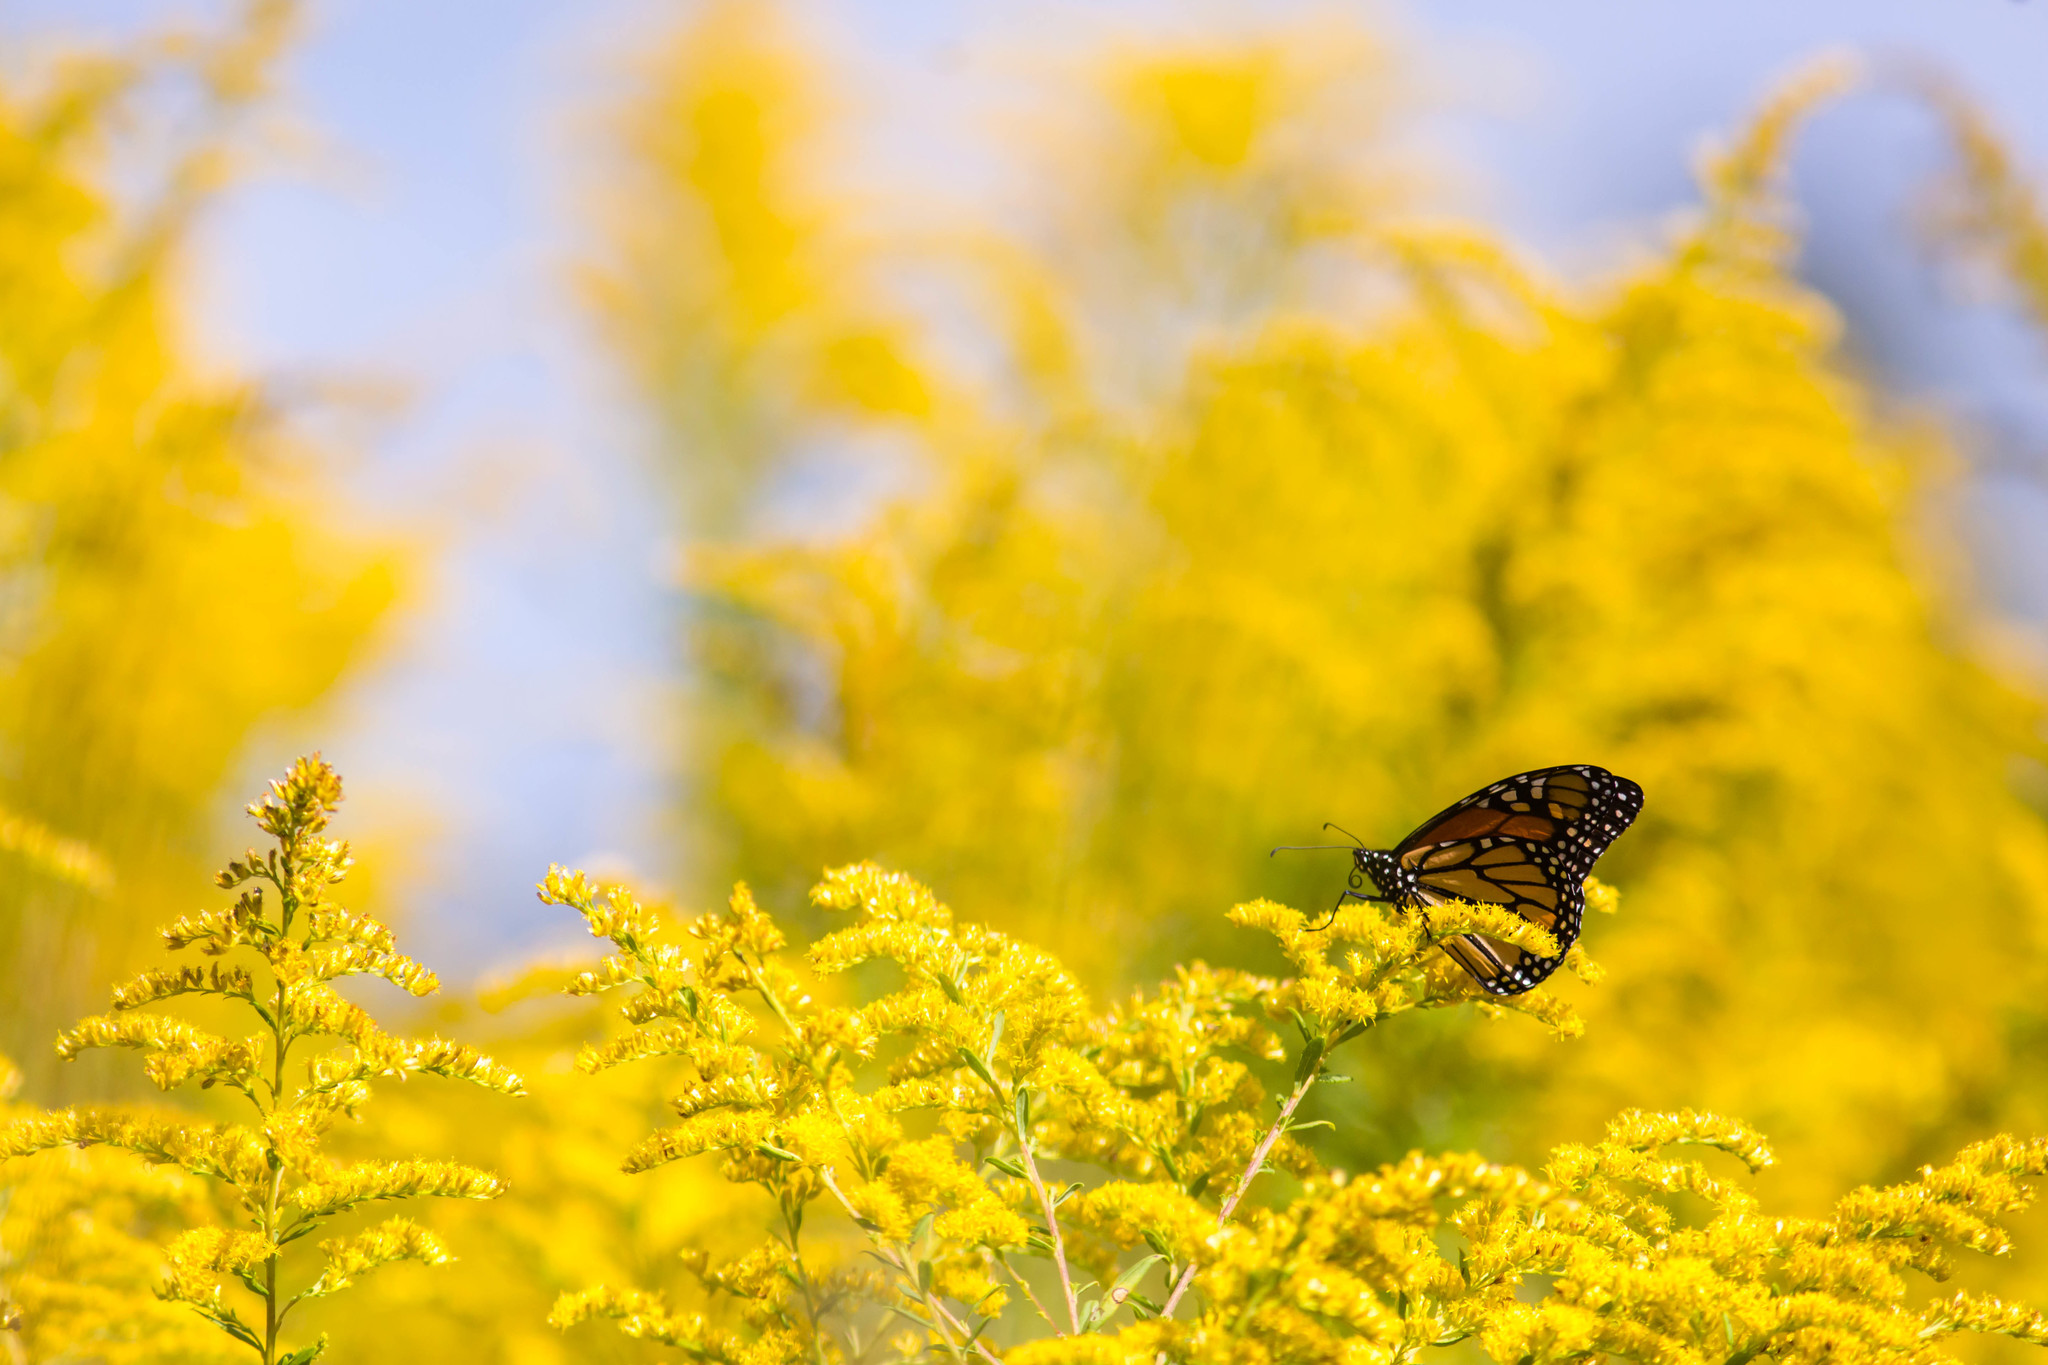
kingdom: Animalia
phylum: Arthropoda
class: Insecta
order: Lepidoptera
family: Nymphalidae
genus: Danaus
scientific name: Danaus plexippus
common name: Monarch
